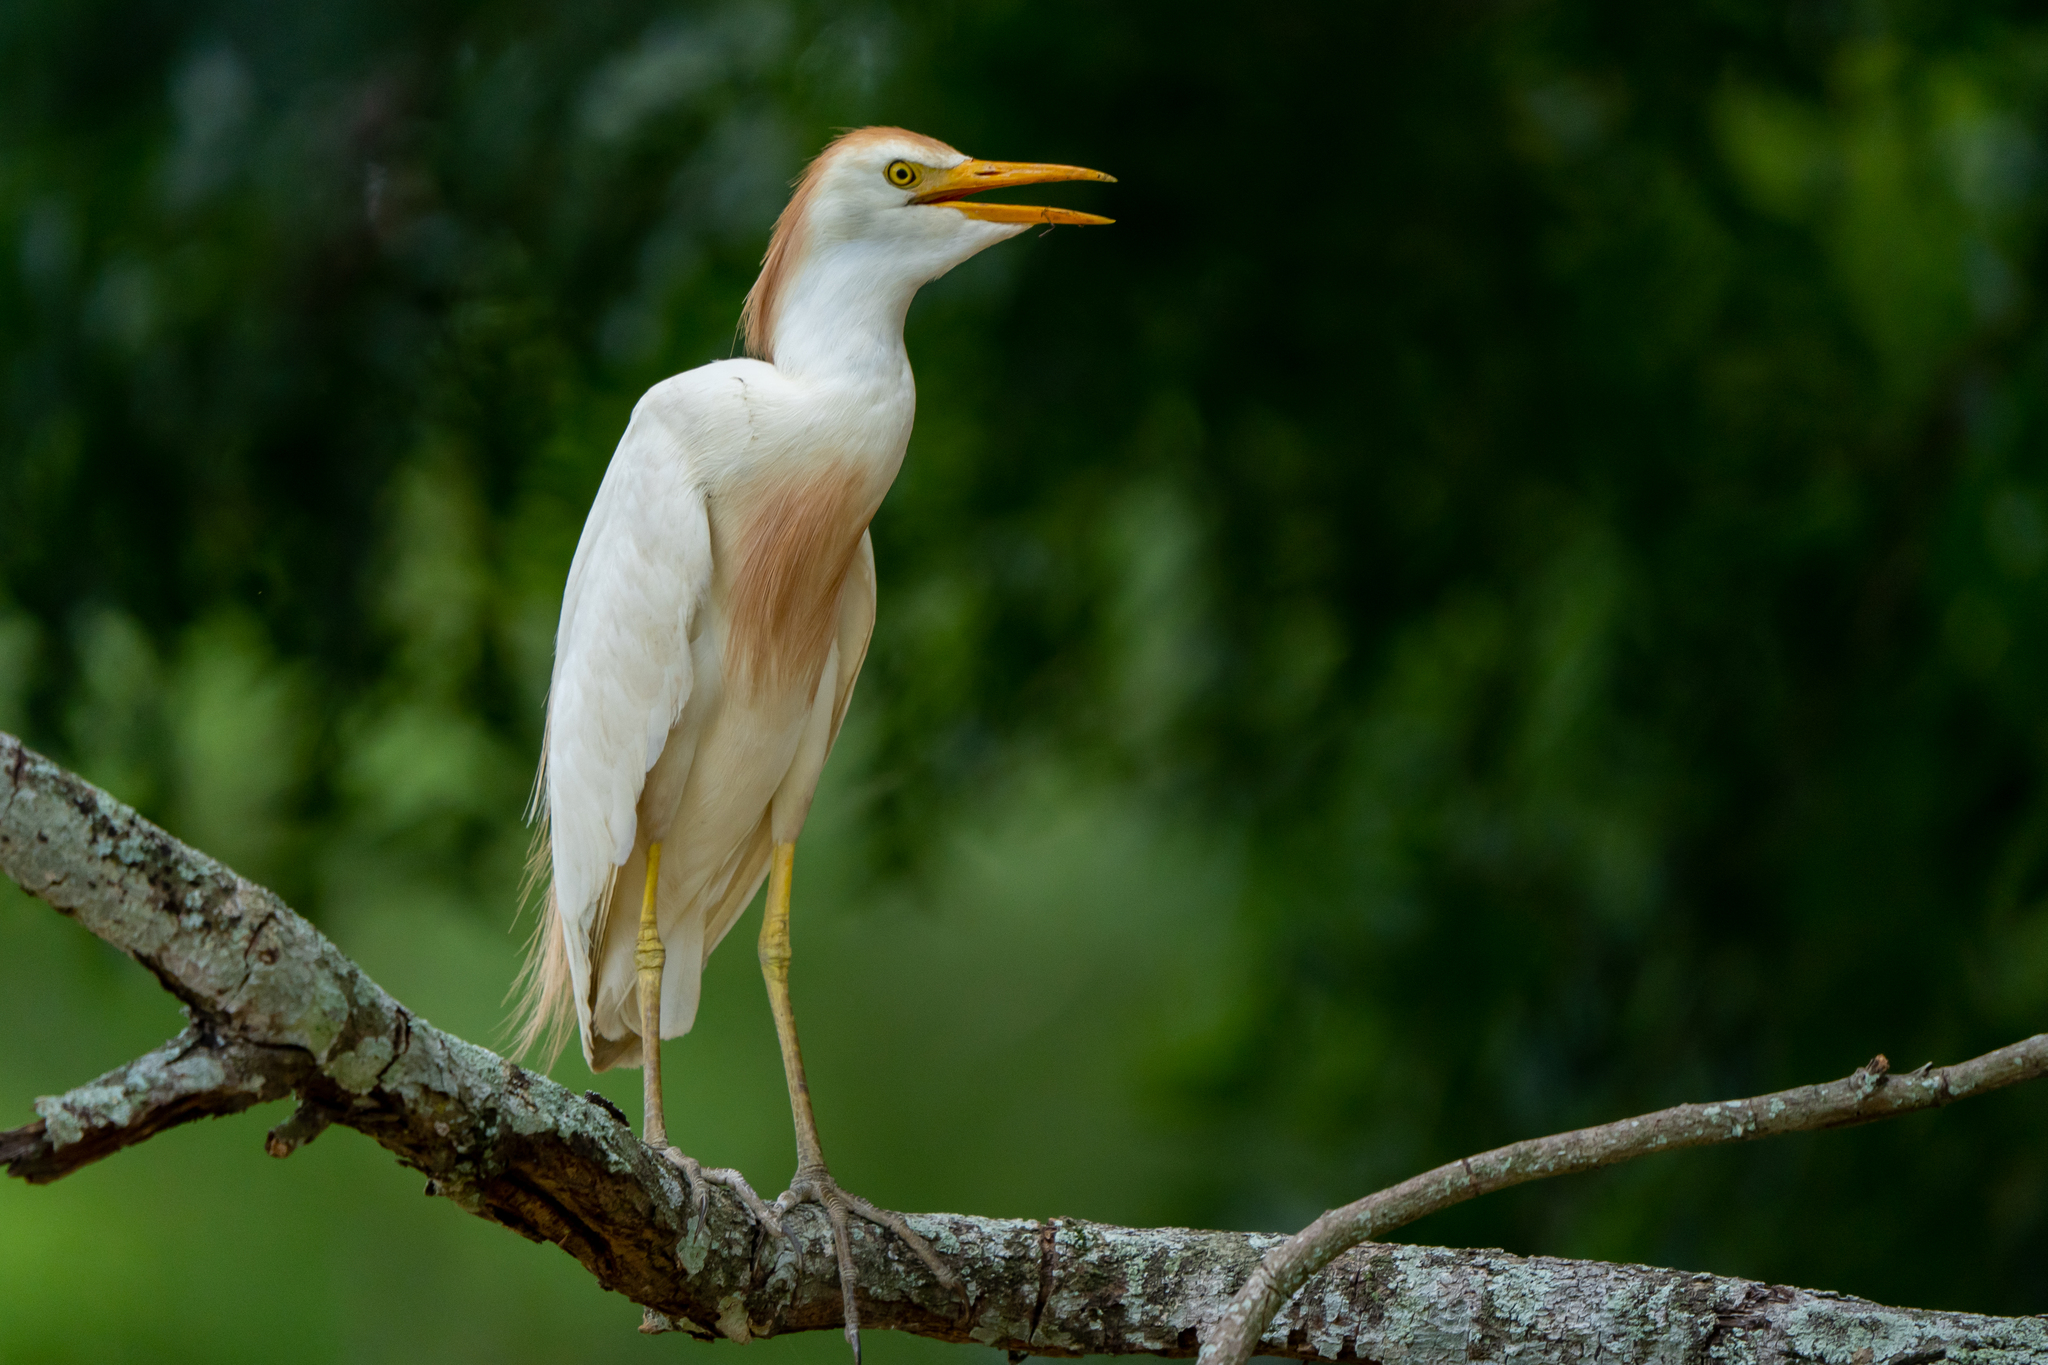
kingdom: Animalia
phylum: Chordata
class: Aves
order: Pelecaniformes
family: Ardeidae
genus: Bubulcus
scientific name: Bubulcus ibis
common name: Cattle egret
